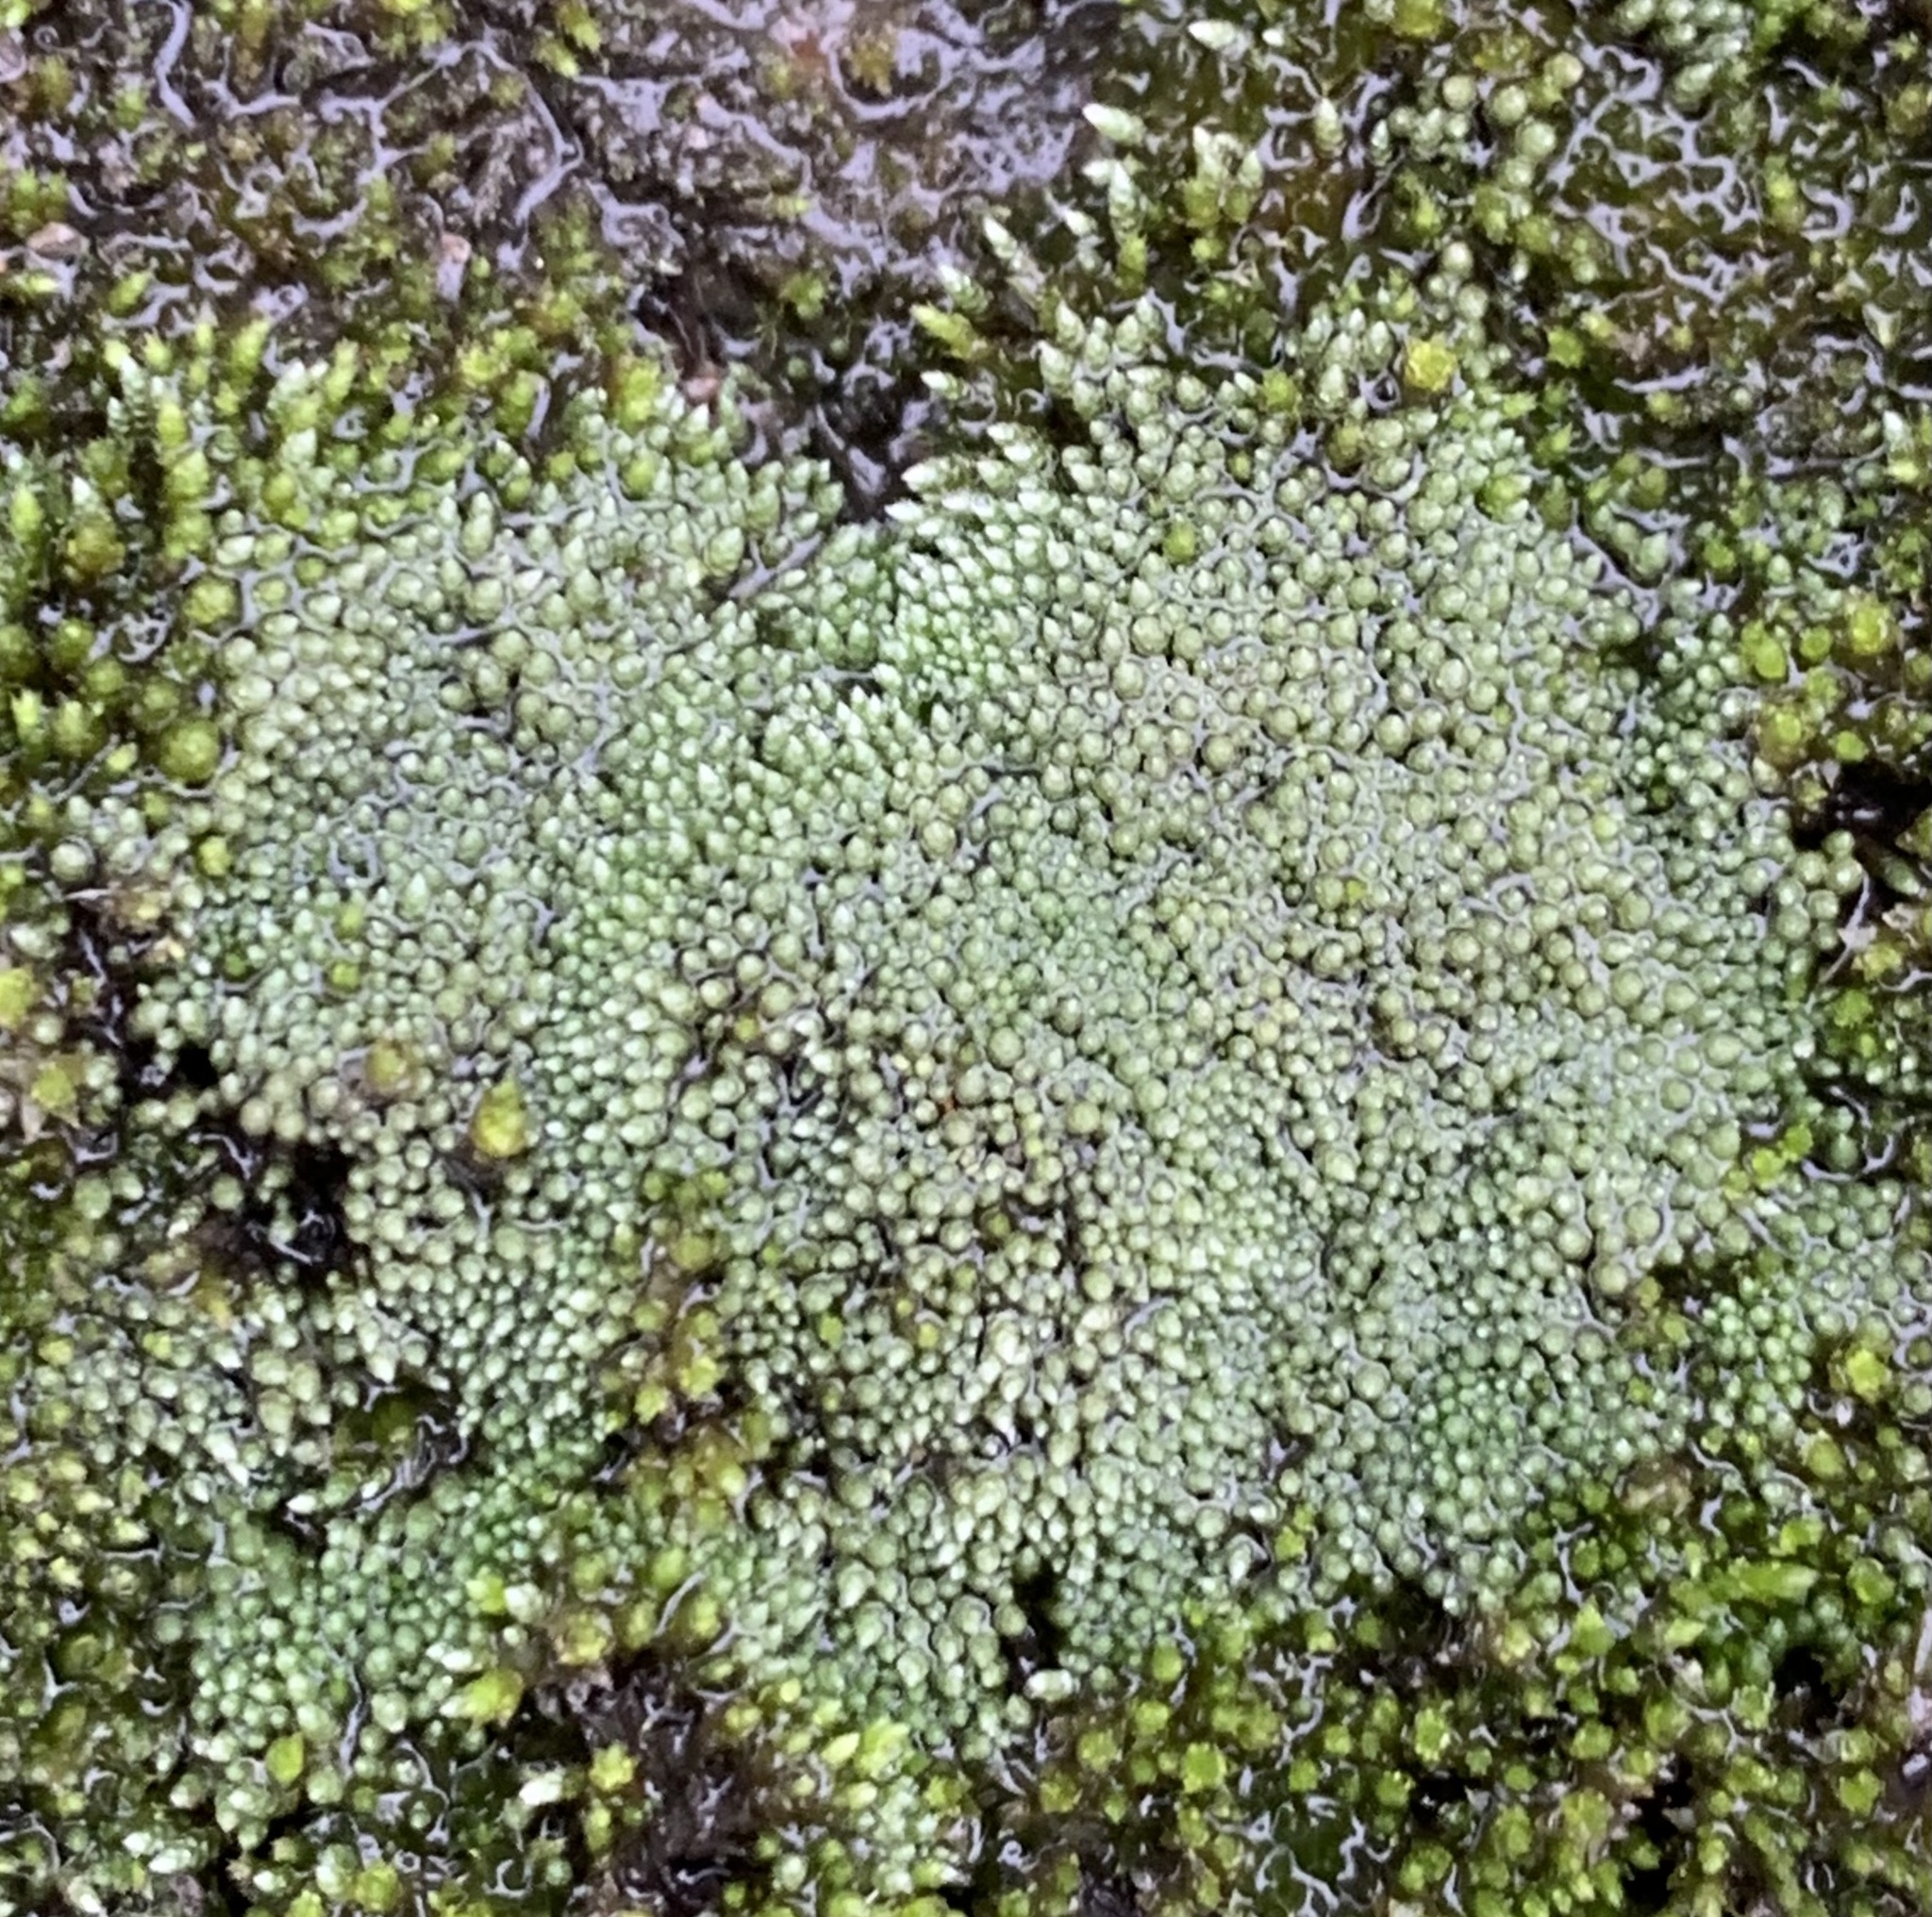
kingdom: Plantae
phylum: Bryophyta
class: Bryopsida
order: Bryales
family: Bryaceae
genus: Bryum
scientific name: Bryum argenteum
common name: Silver-moss
